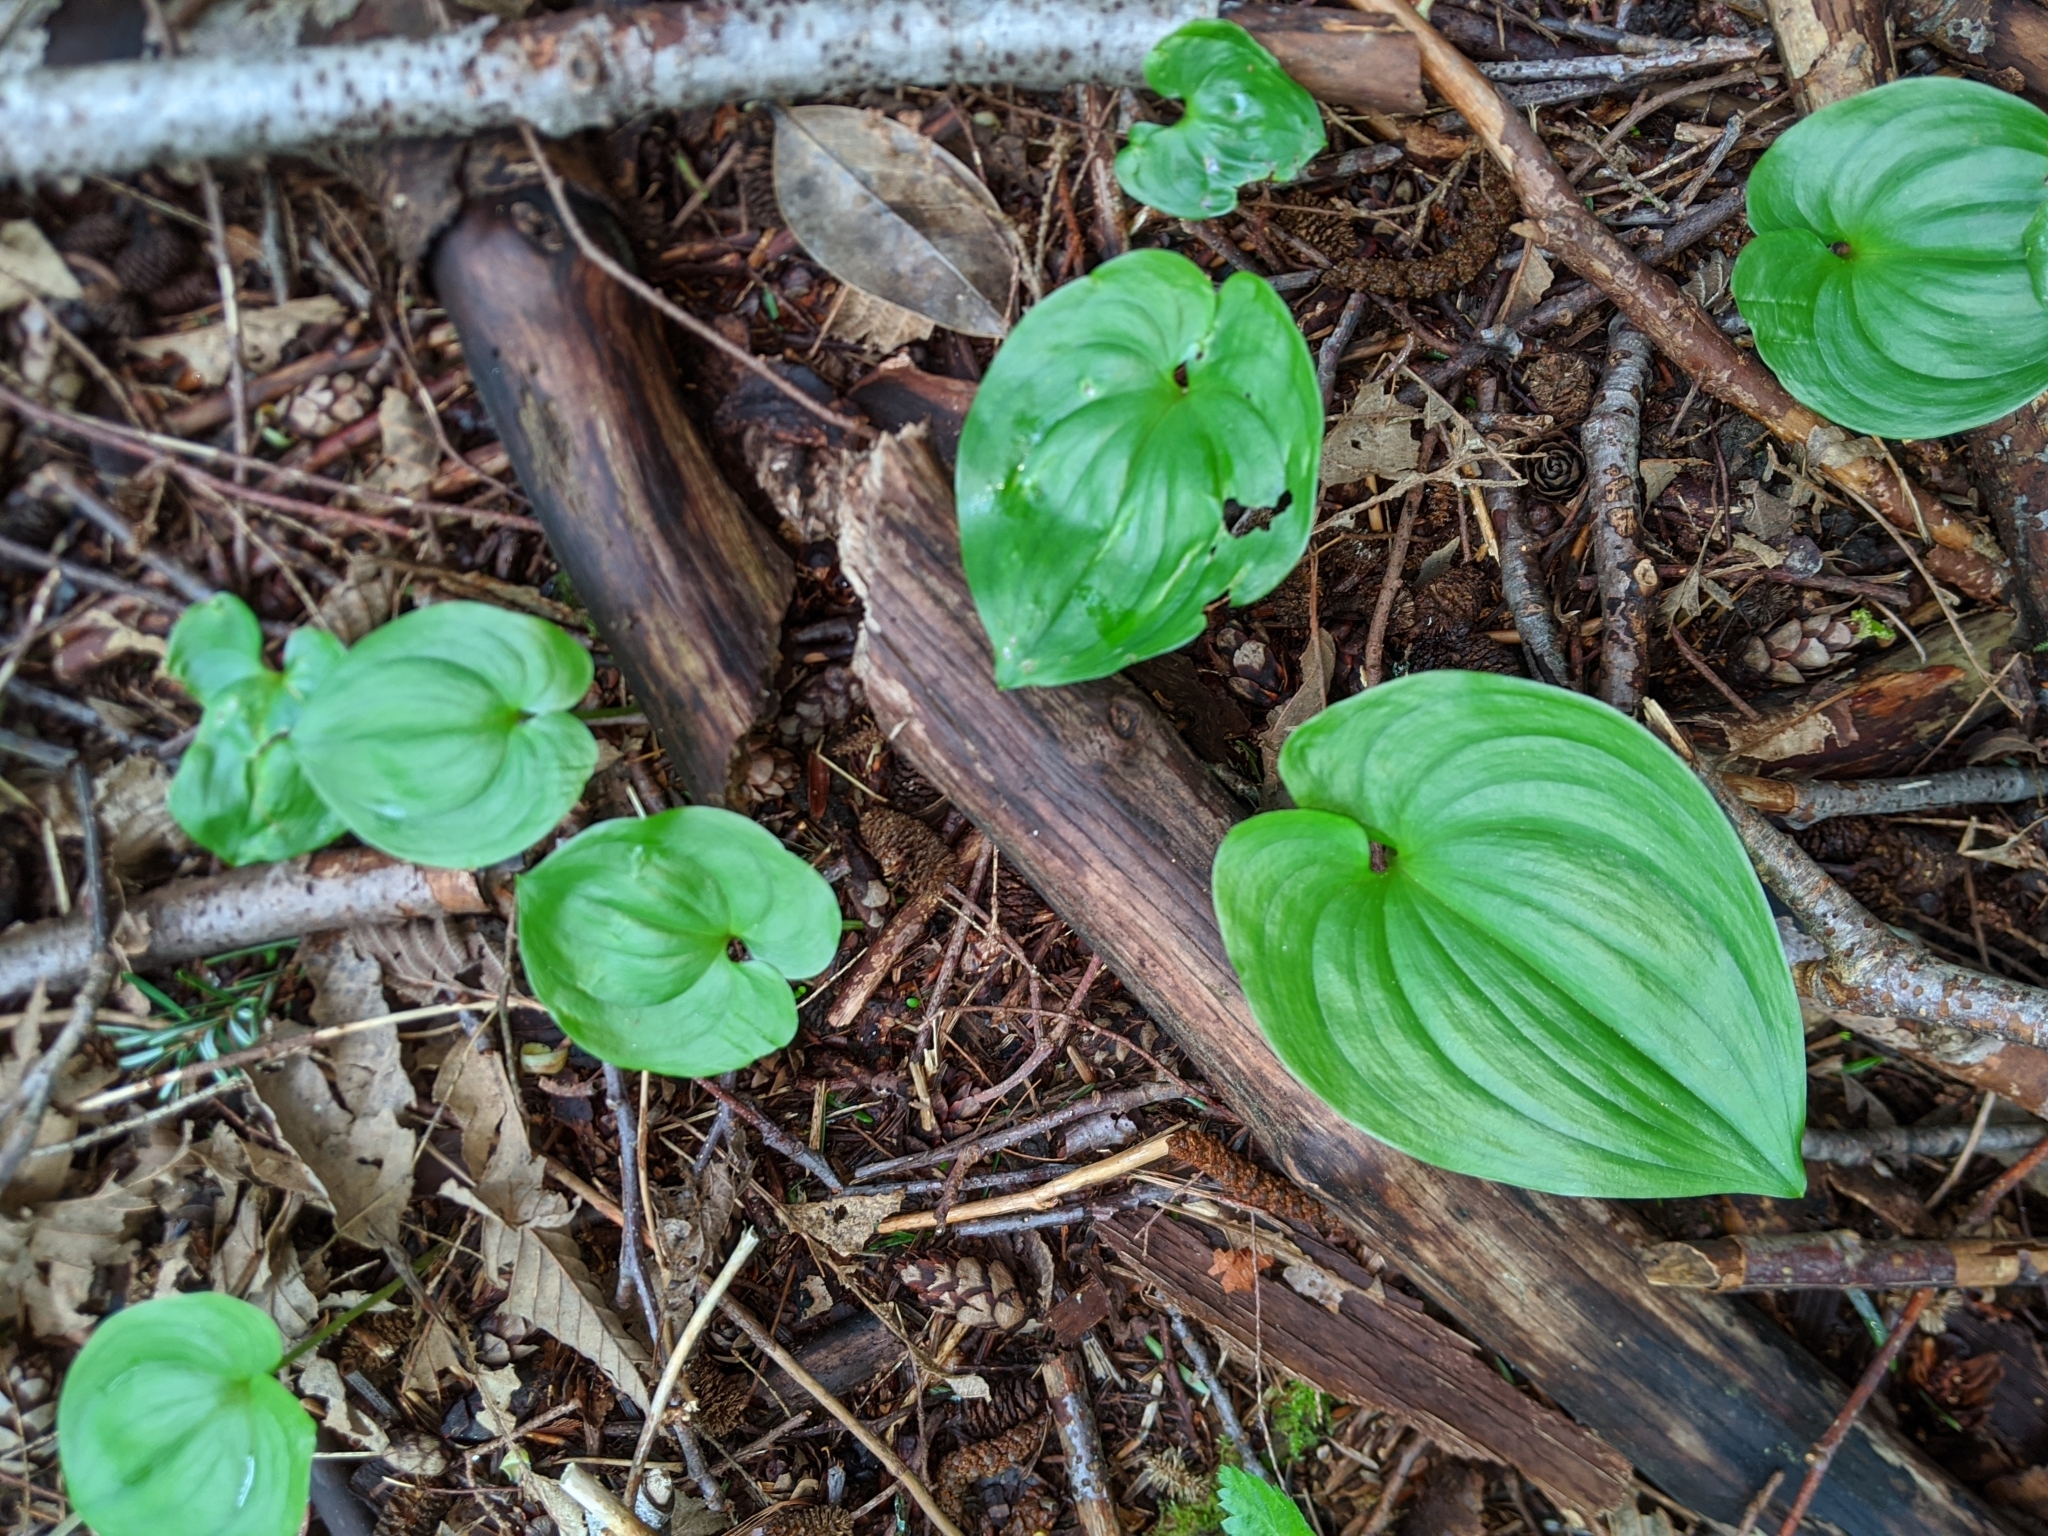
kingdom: Plantae
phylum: Tracheophyta
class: Liliopsida
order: Asparagales
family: Asparagaceae
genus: Maianthemum
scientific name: Maianthemum dilatatum
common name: False lily-of-the-valley
